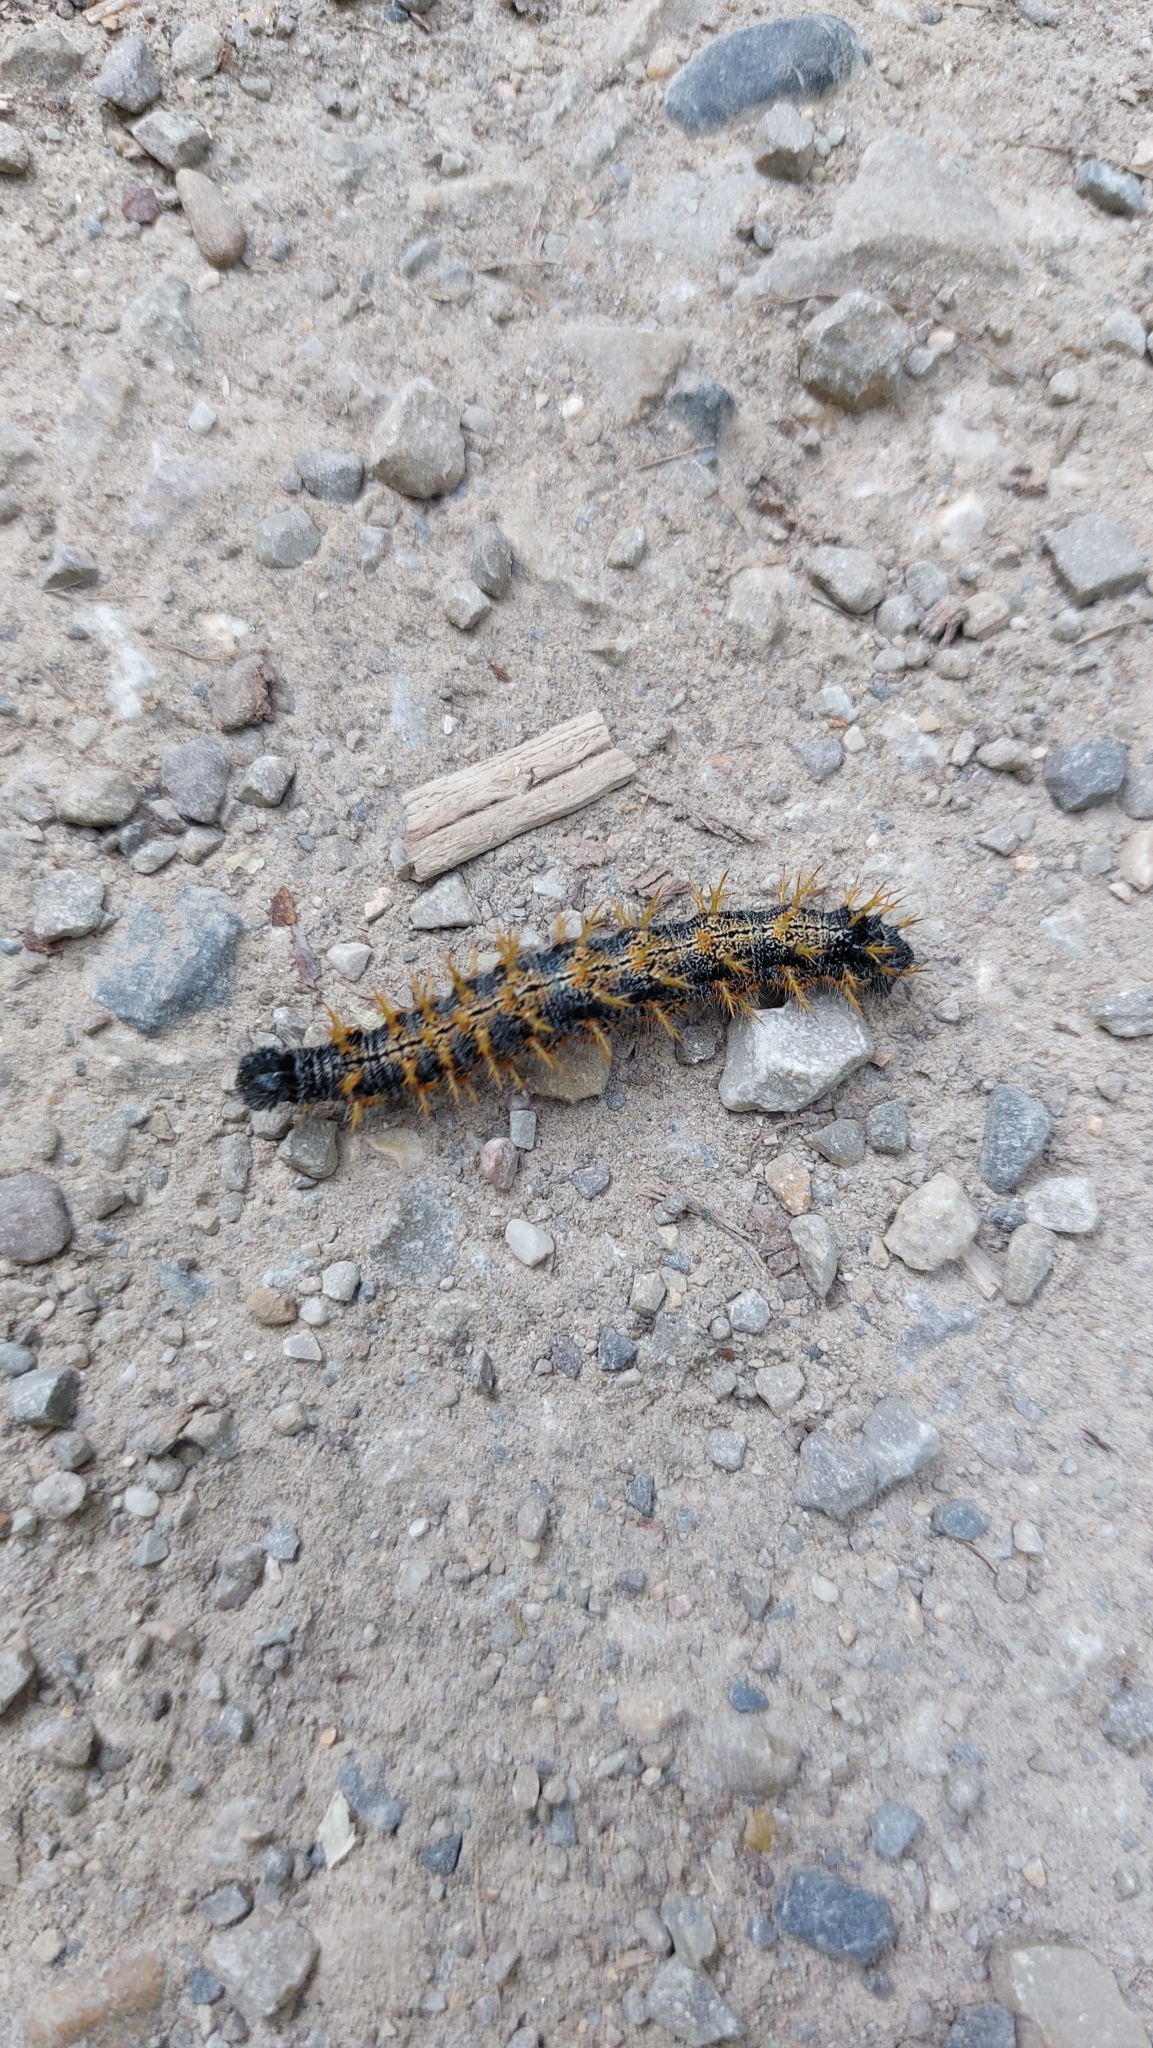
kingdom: Animalia
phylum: Arthropoda
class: Insecta
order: Lepidoptera
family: Nymphalidae
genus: Nymphalis
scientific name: Nymphalis polychloros
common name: Large tortoiseshell
